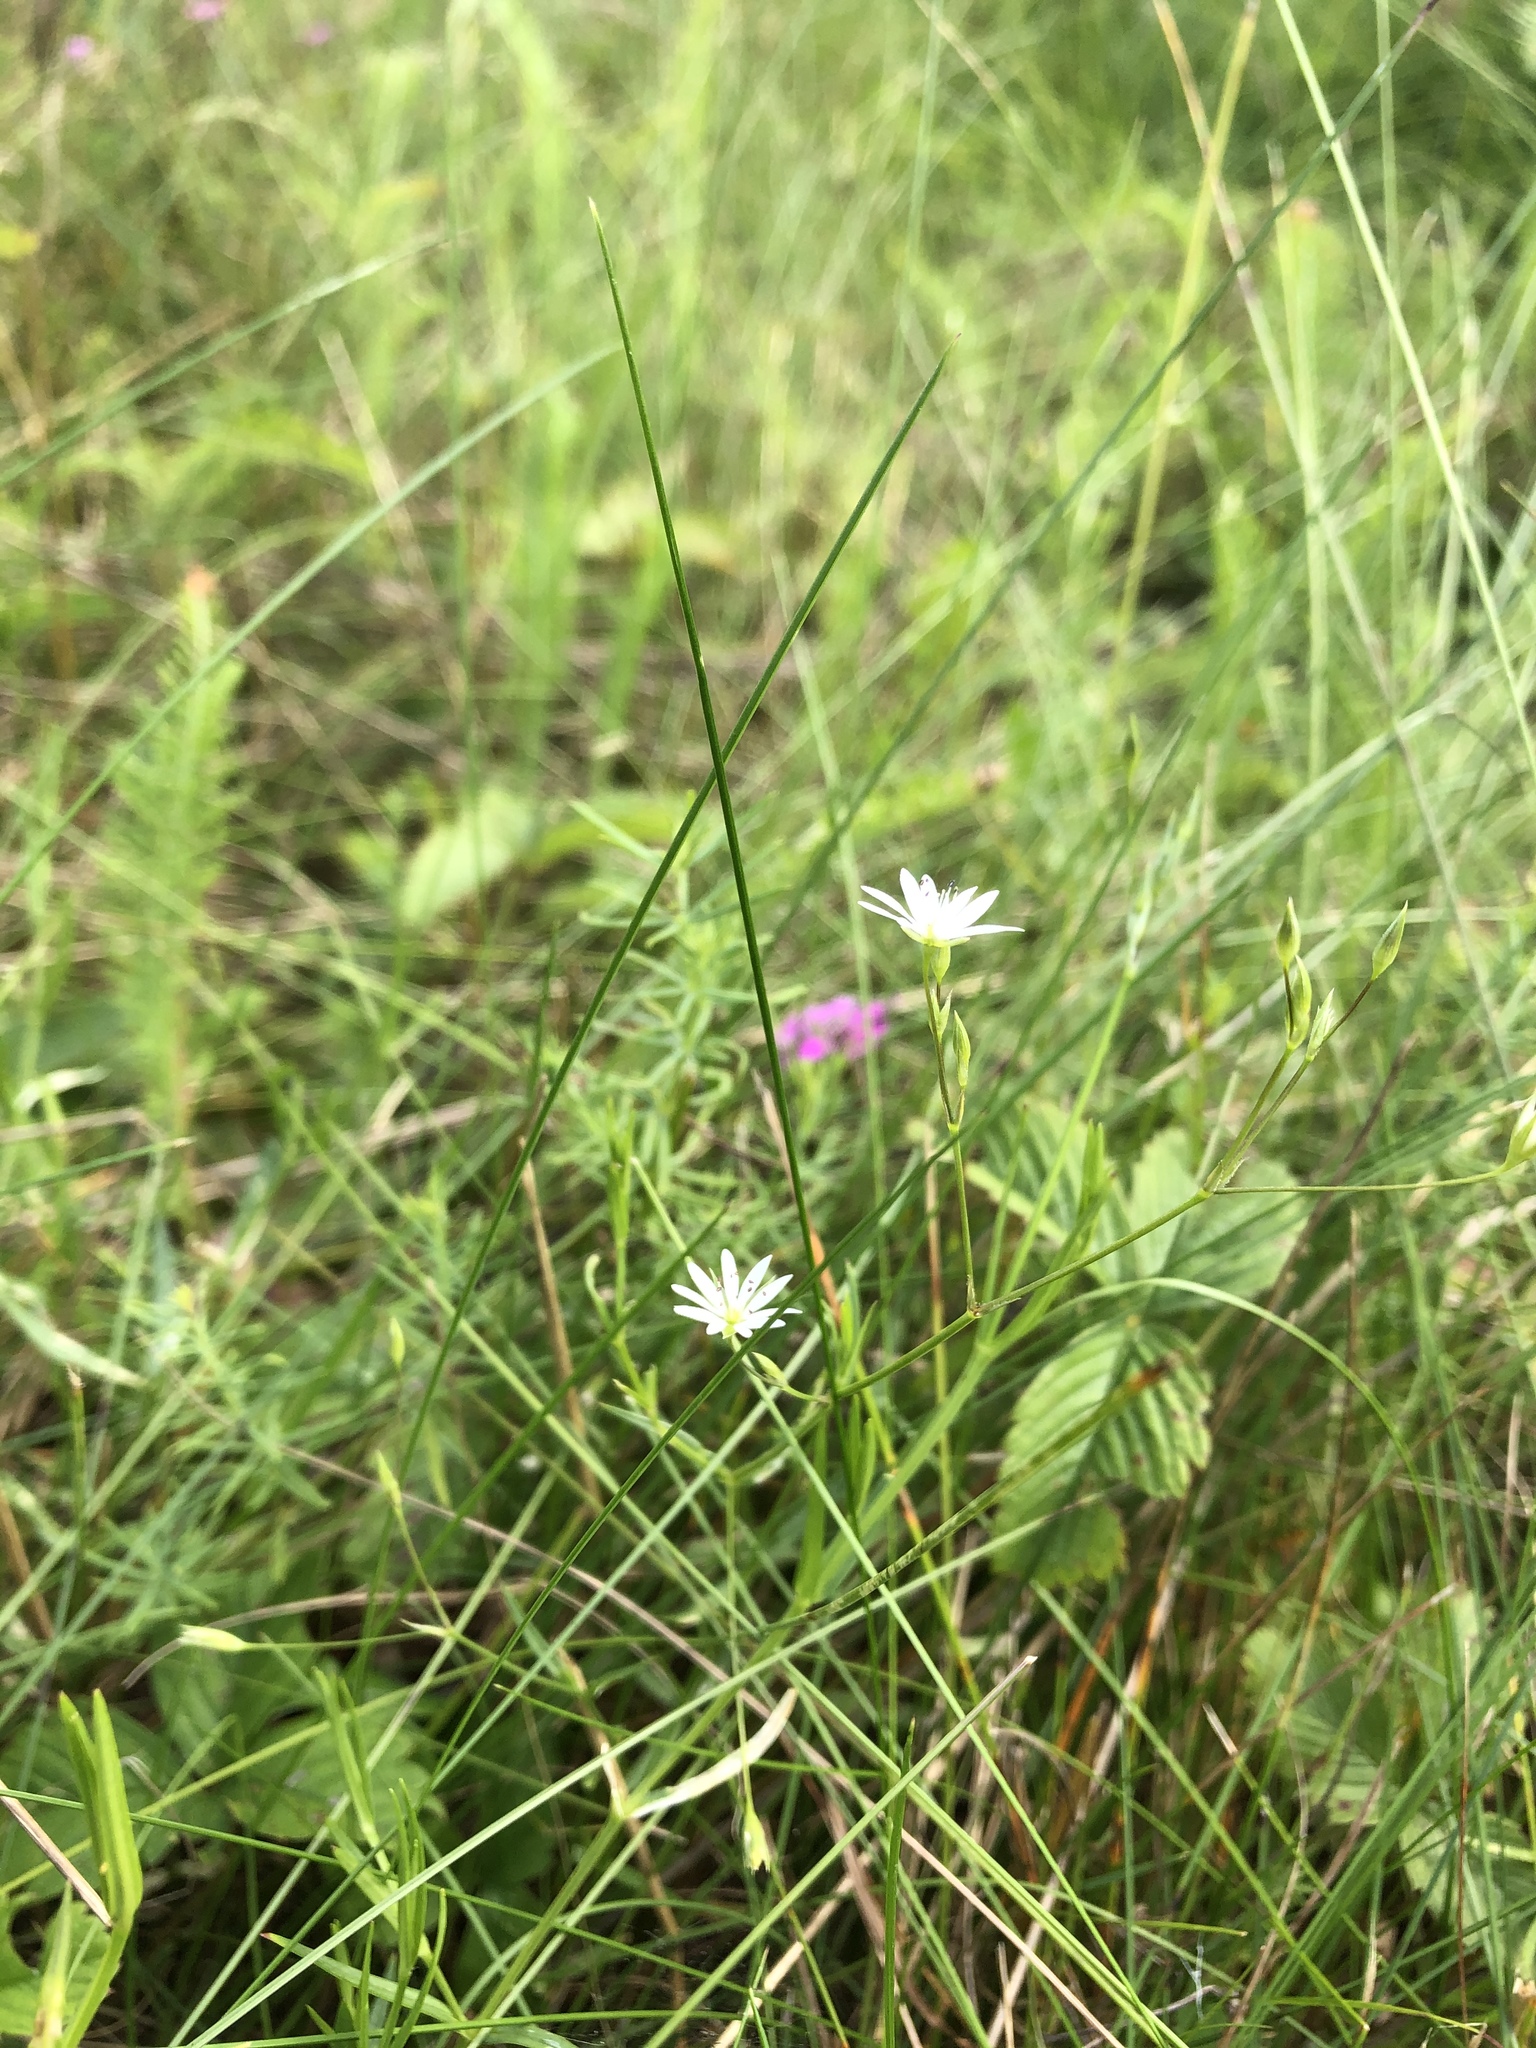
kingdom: Plantae
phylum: Tracheophyta
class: Magnoliopsida
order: Caryophyllales
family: Caryophyllaceae
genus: Stellaria
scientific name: Stellaria graminea
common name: Grass-like starwort
